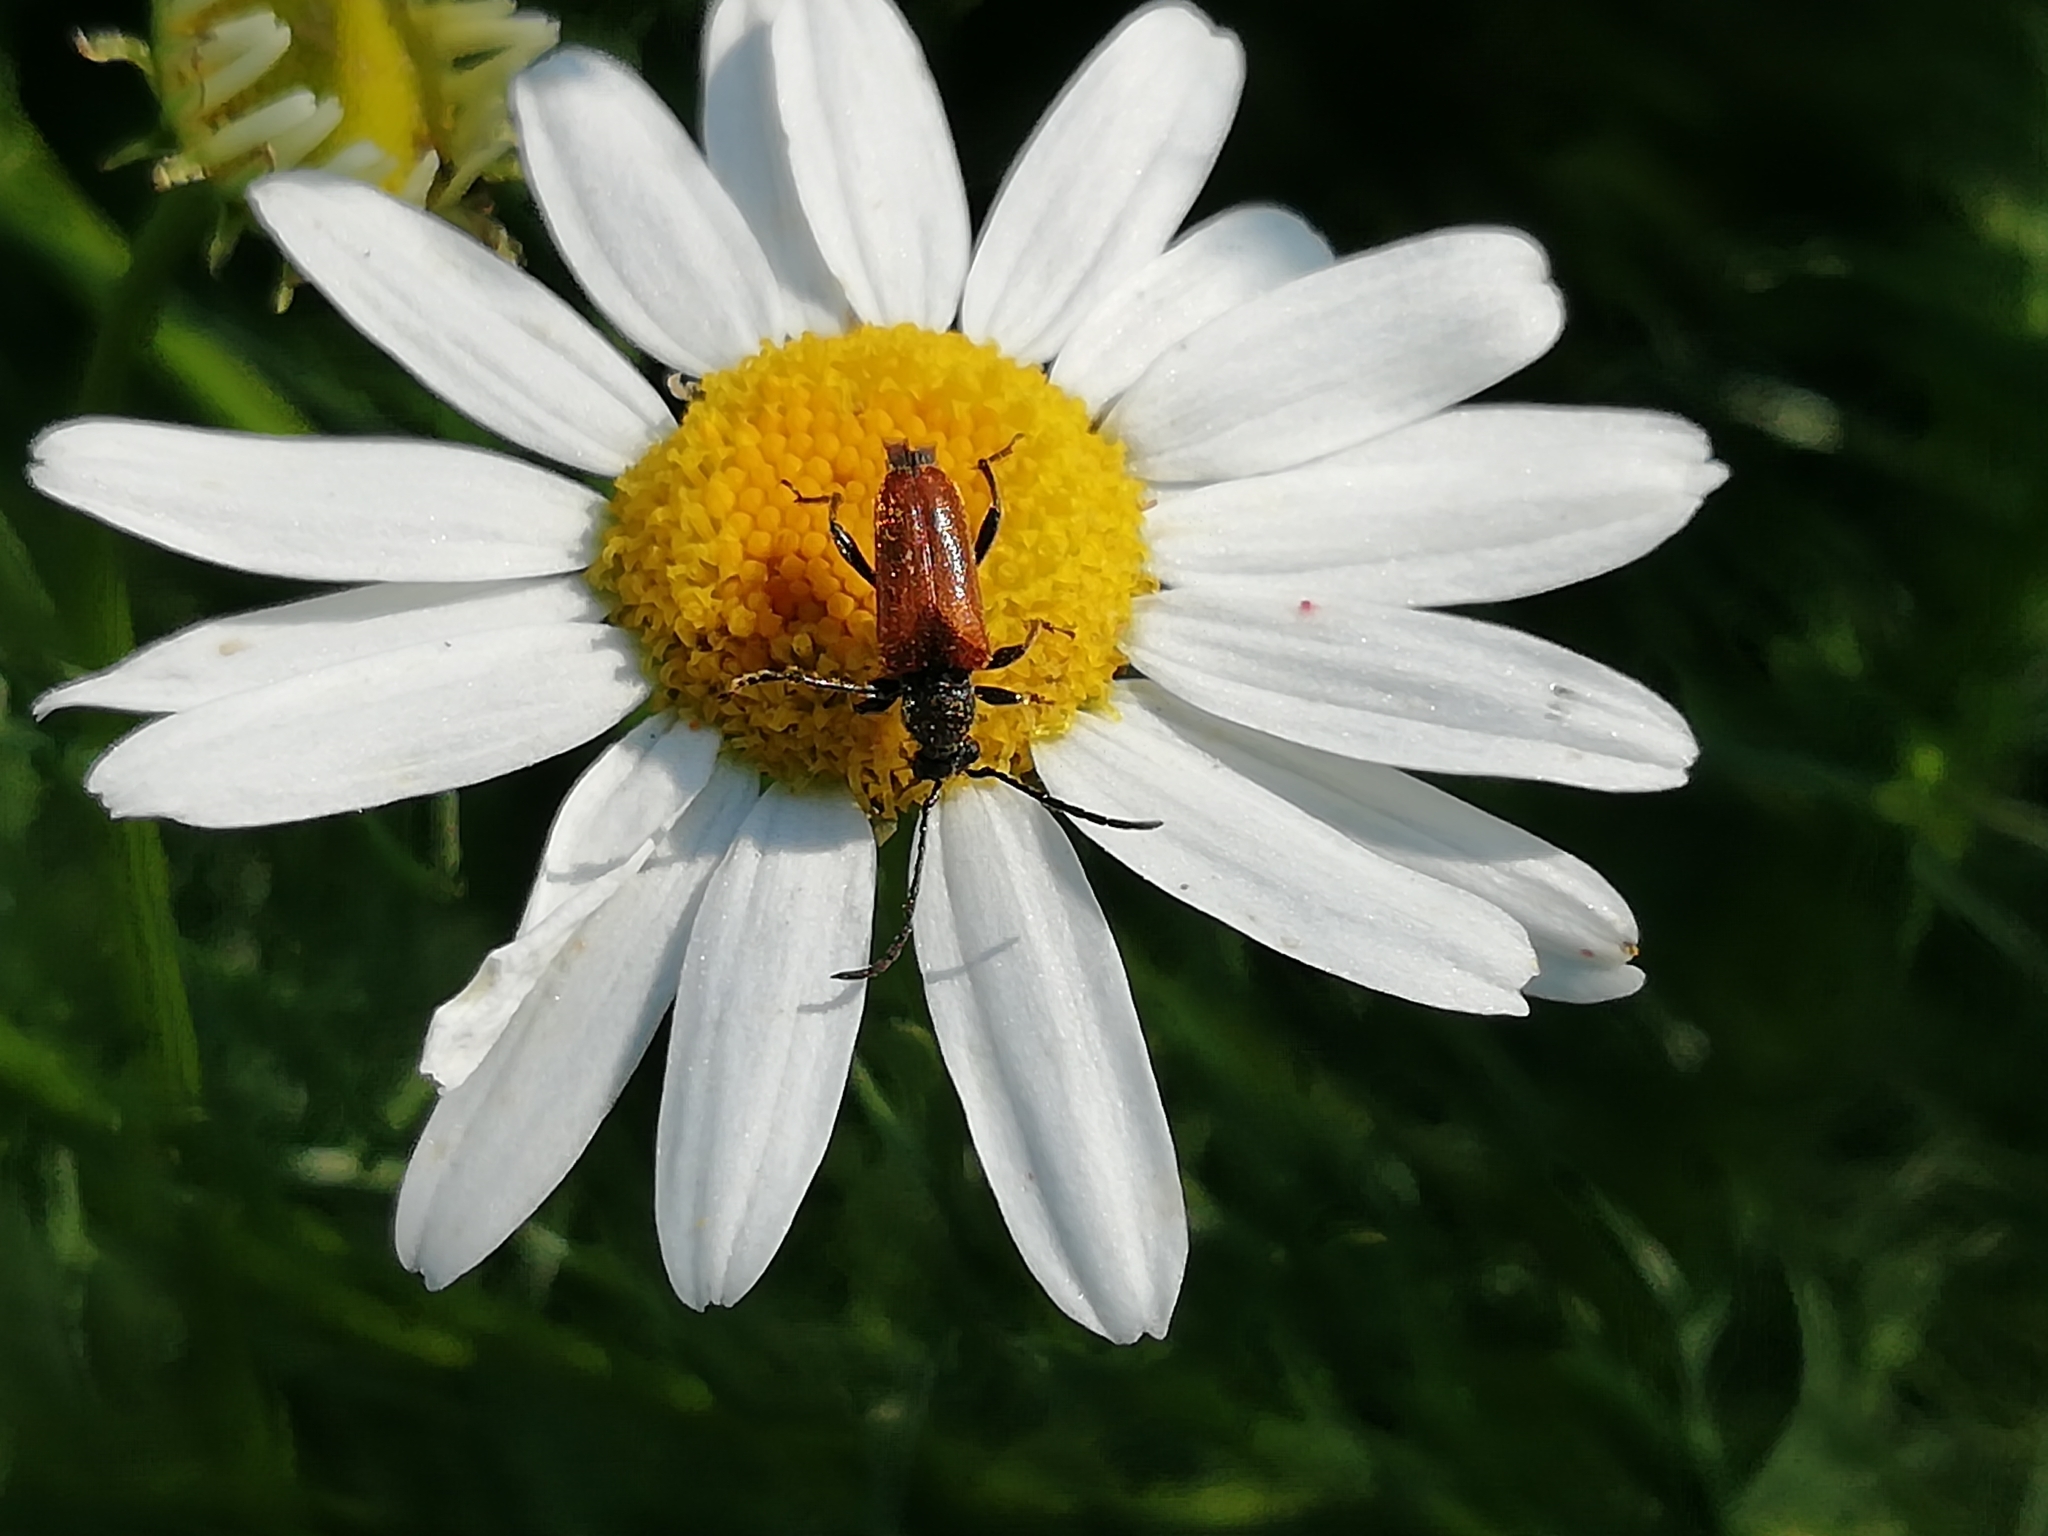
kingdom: Animalia
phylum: Arthropoda
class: Insecta
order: Coleoptera
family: Cerambycidae
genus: Pseudovadonia
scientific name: Pseudovadonia livida
